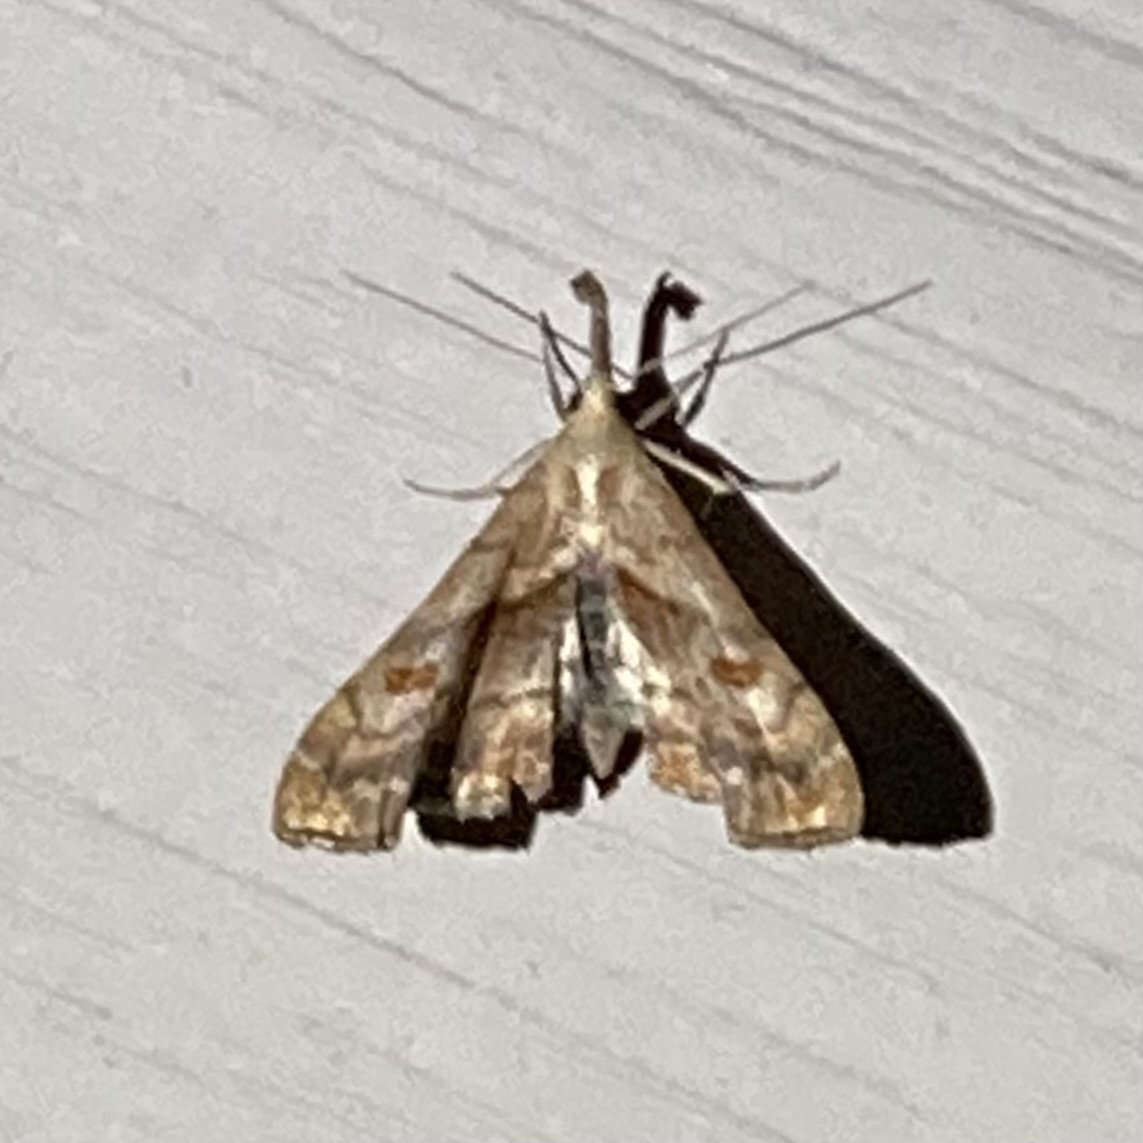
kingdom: Animalia
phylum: Arthropoda
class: Insecta
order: Lepidoptera
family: Erebidae
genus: Palthis
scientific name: Palthis angulalis
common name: Dark-spotted palthis moth
